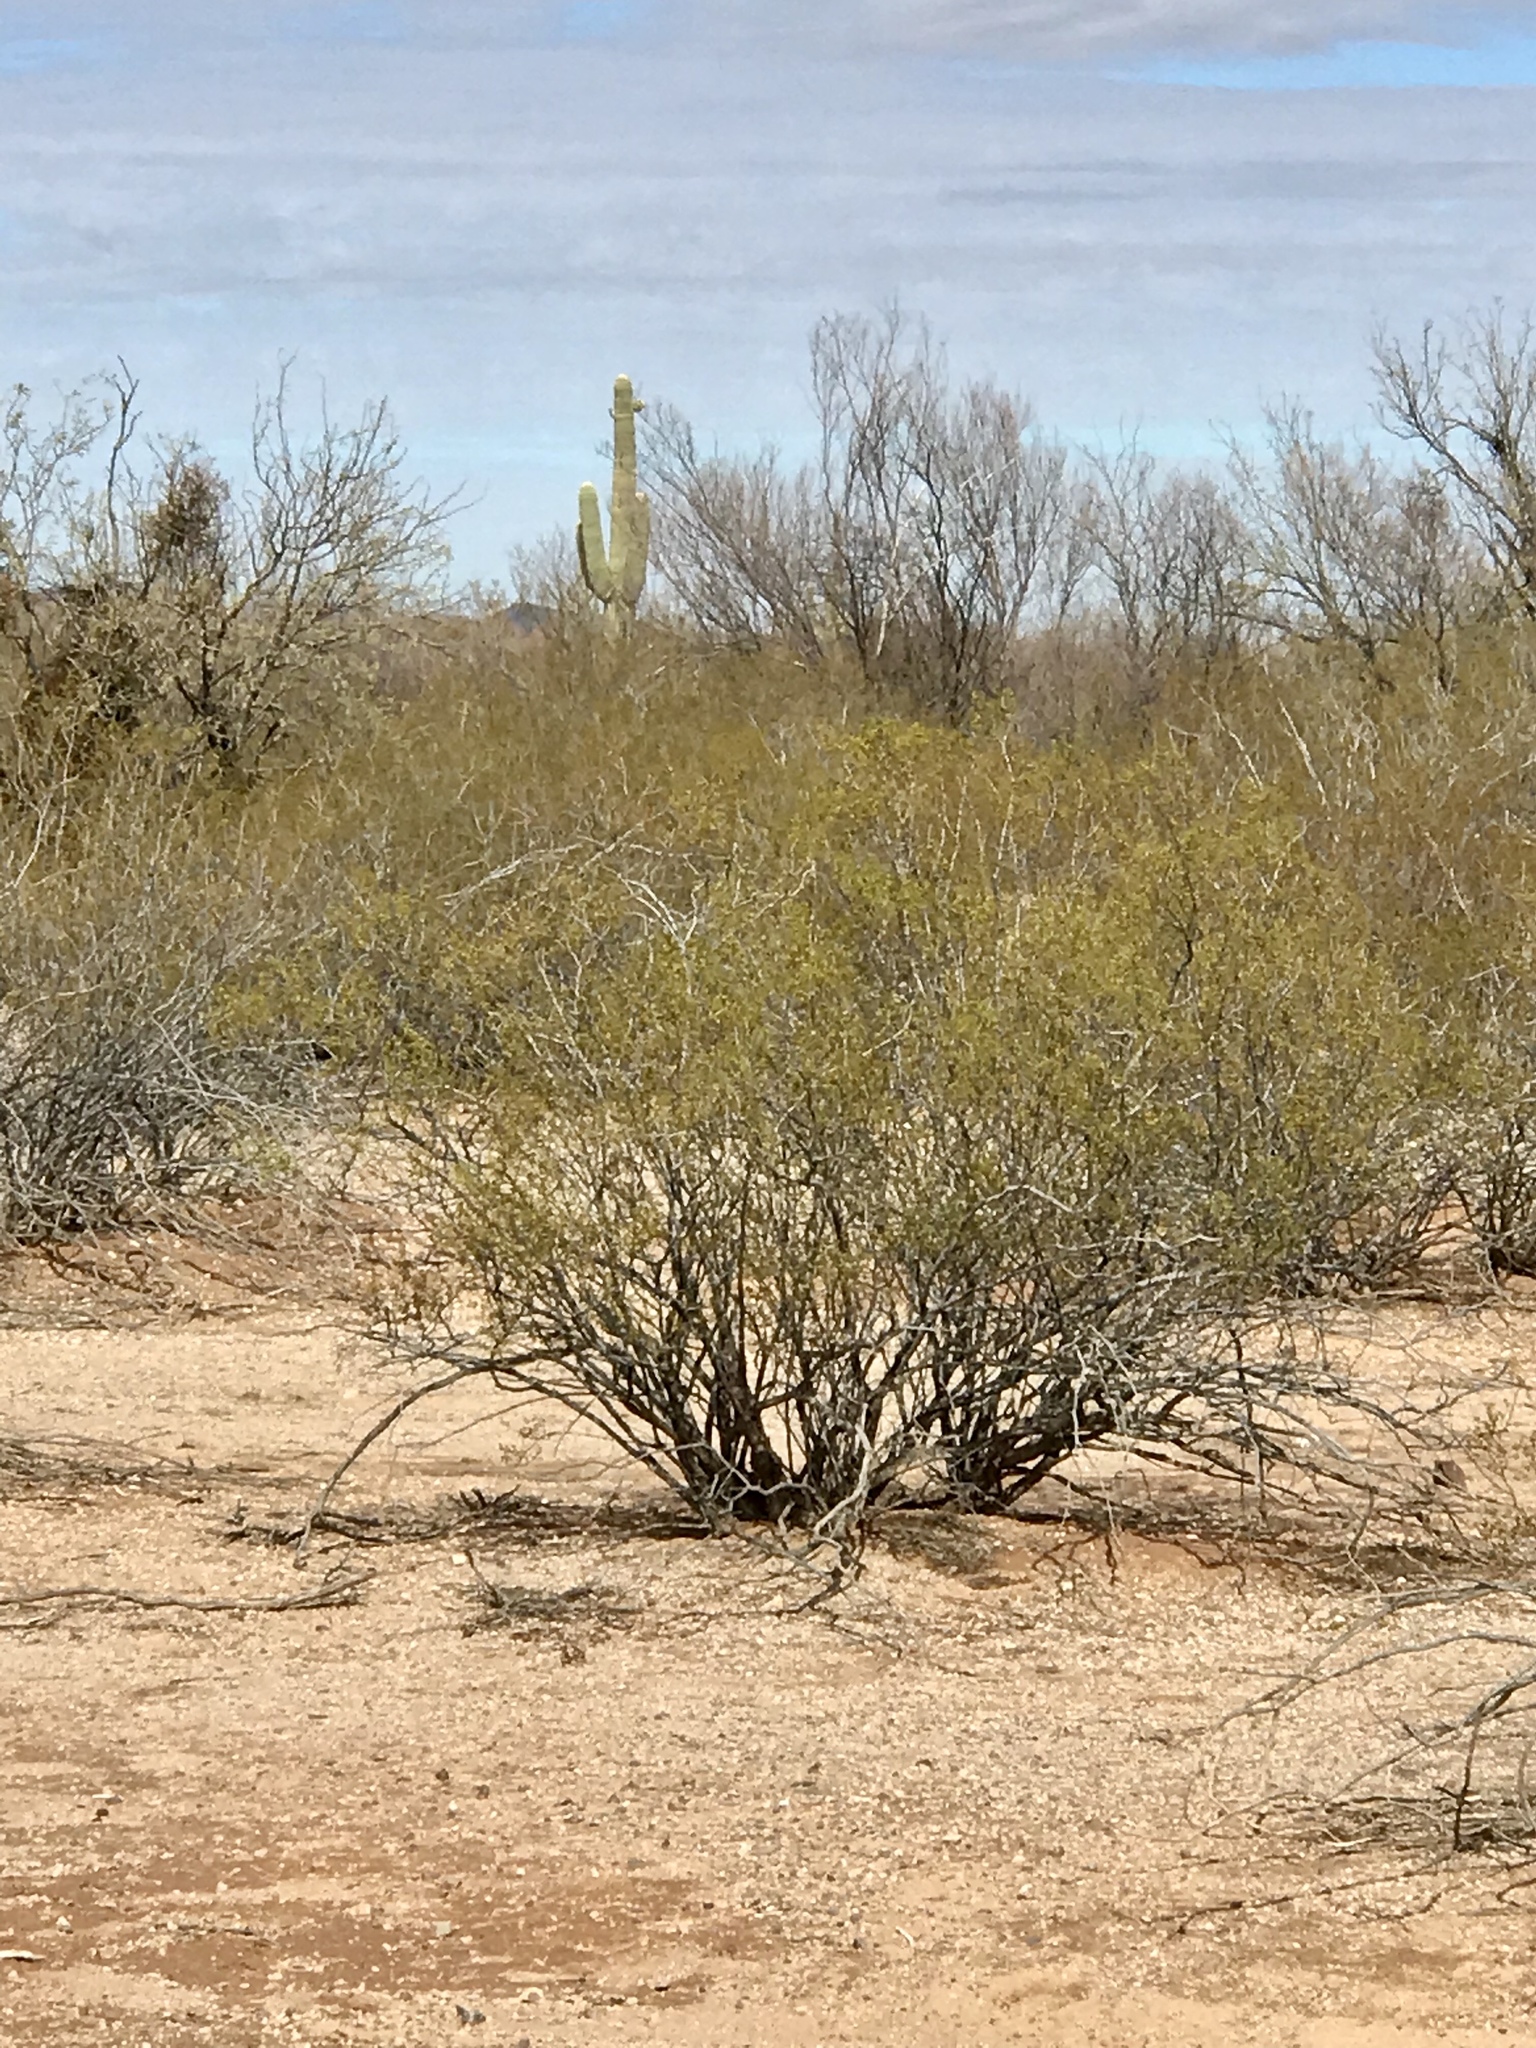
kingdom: Plantae
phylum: Tracheophyta
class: Magnoliopsida
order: Zygophyllales
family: Zygophyllaceae
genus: Larrea
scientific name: Larrea tridentata
